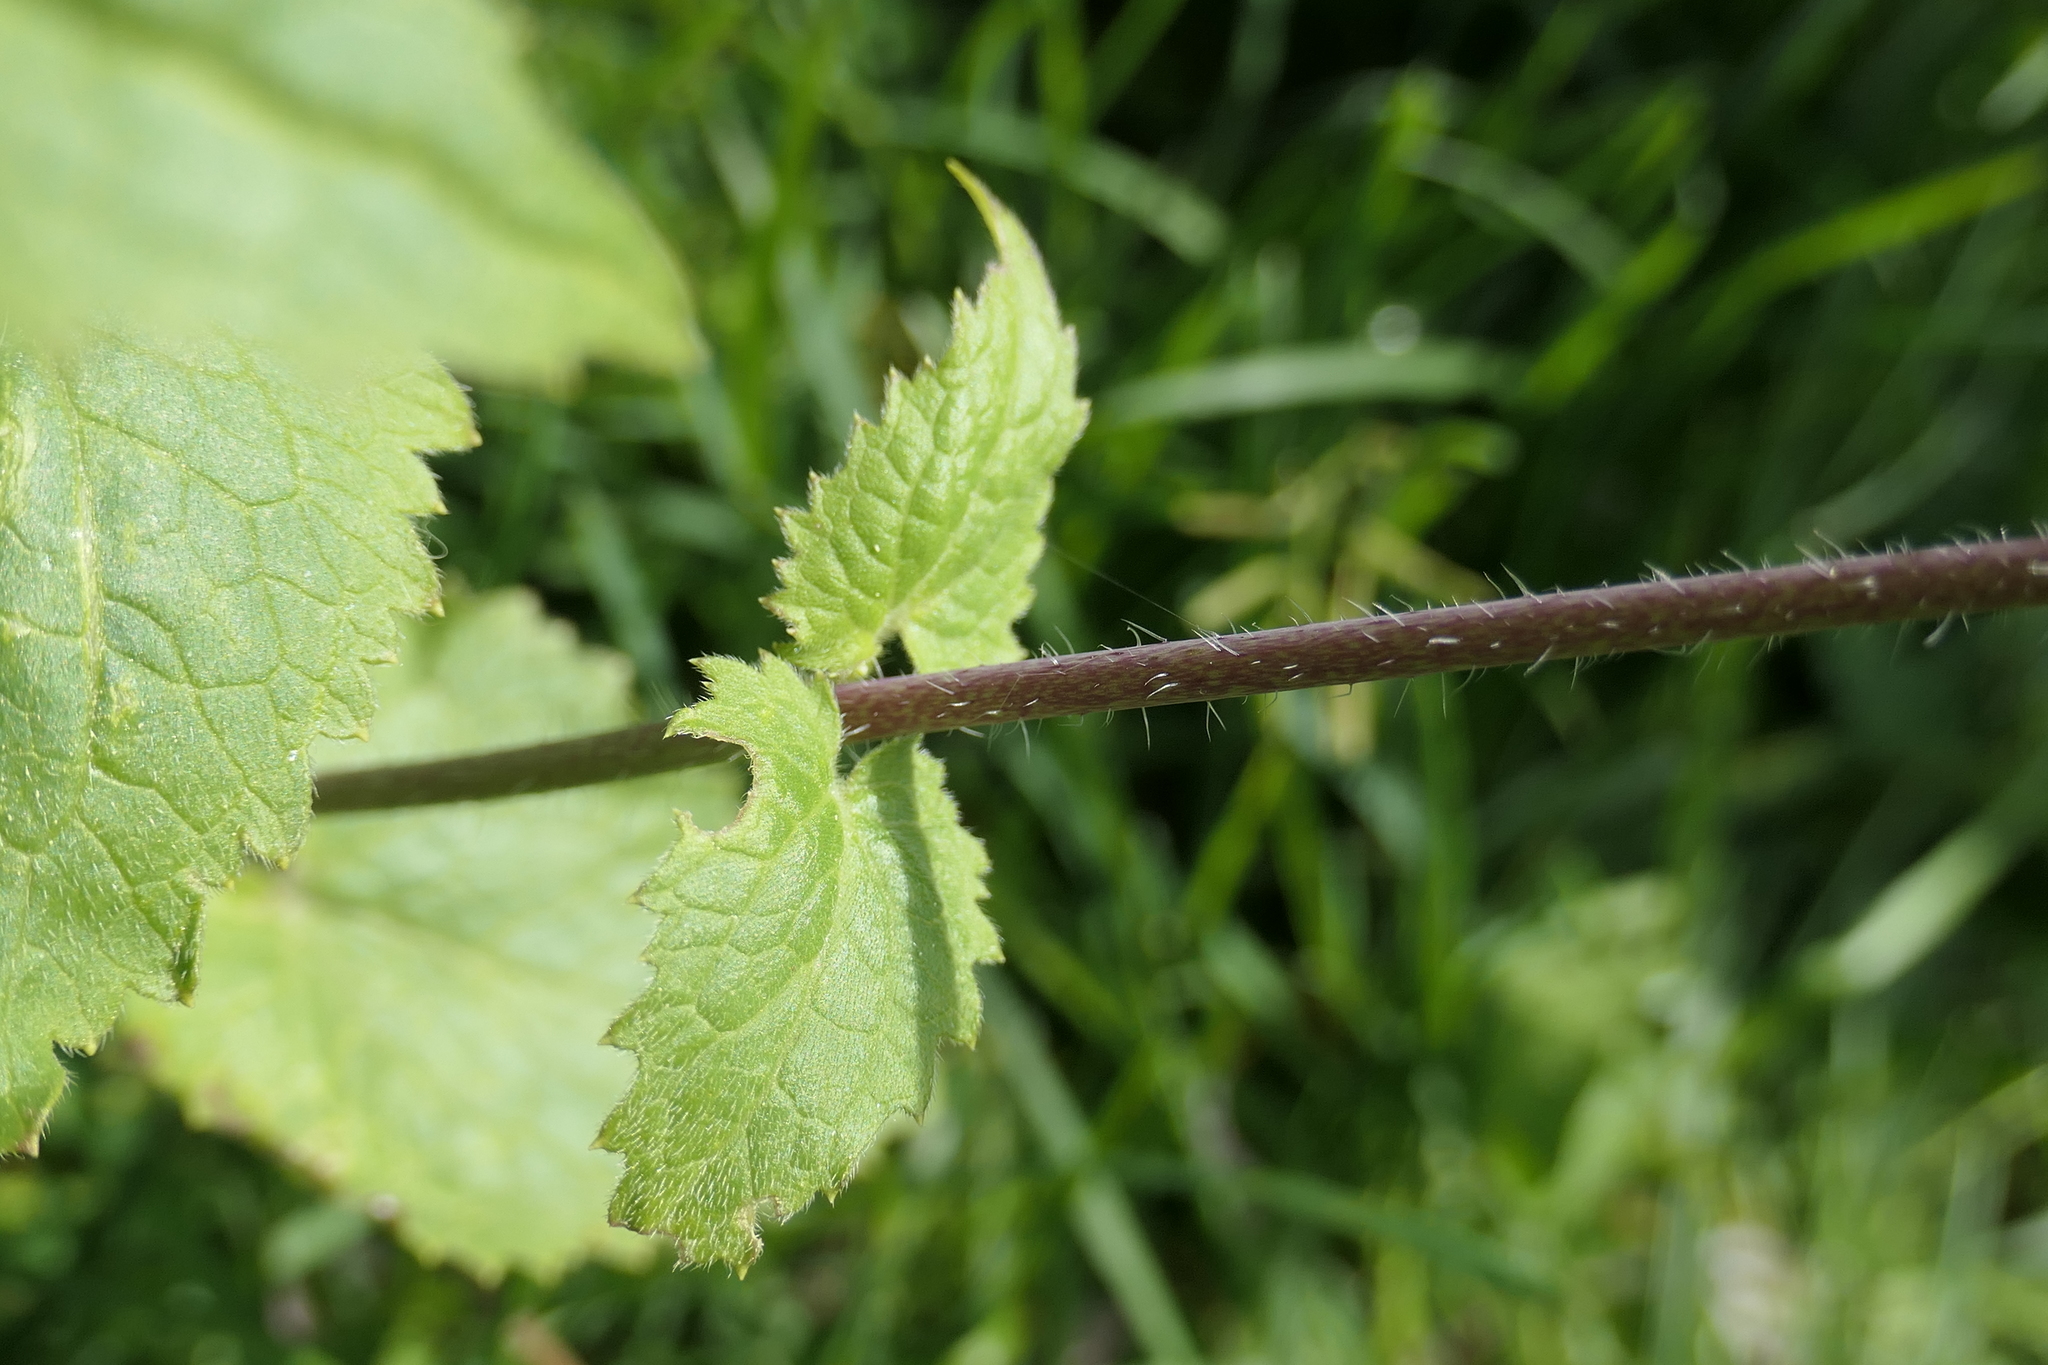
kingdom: Plantae
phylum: Tracheophyta
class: Magnoliopsida
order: Brassicales
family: Brassicaceae
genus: Lunaria
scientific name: Lunaria annua
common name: Honesty
